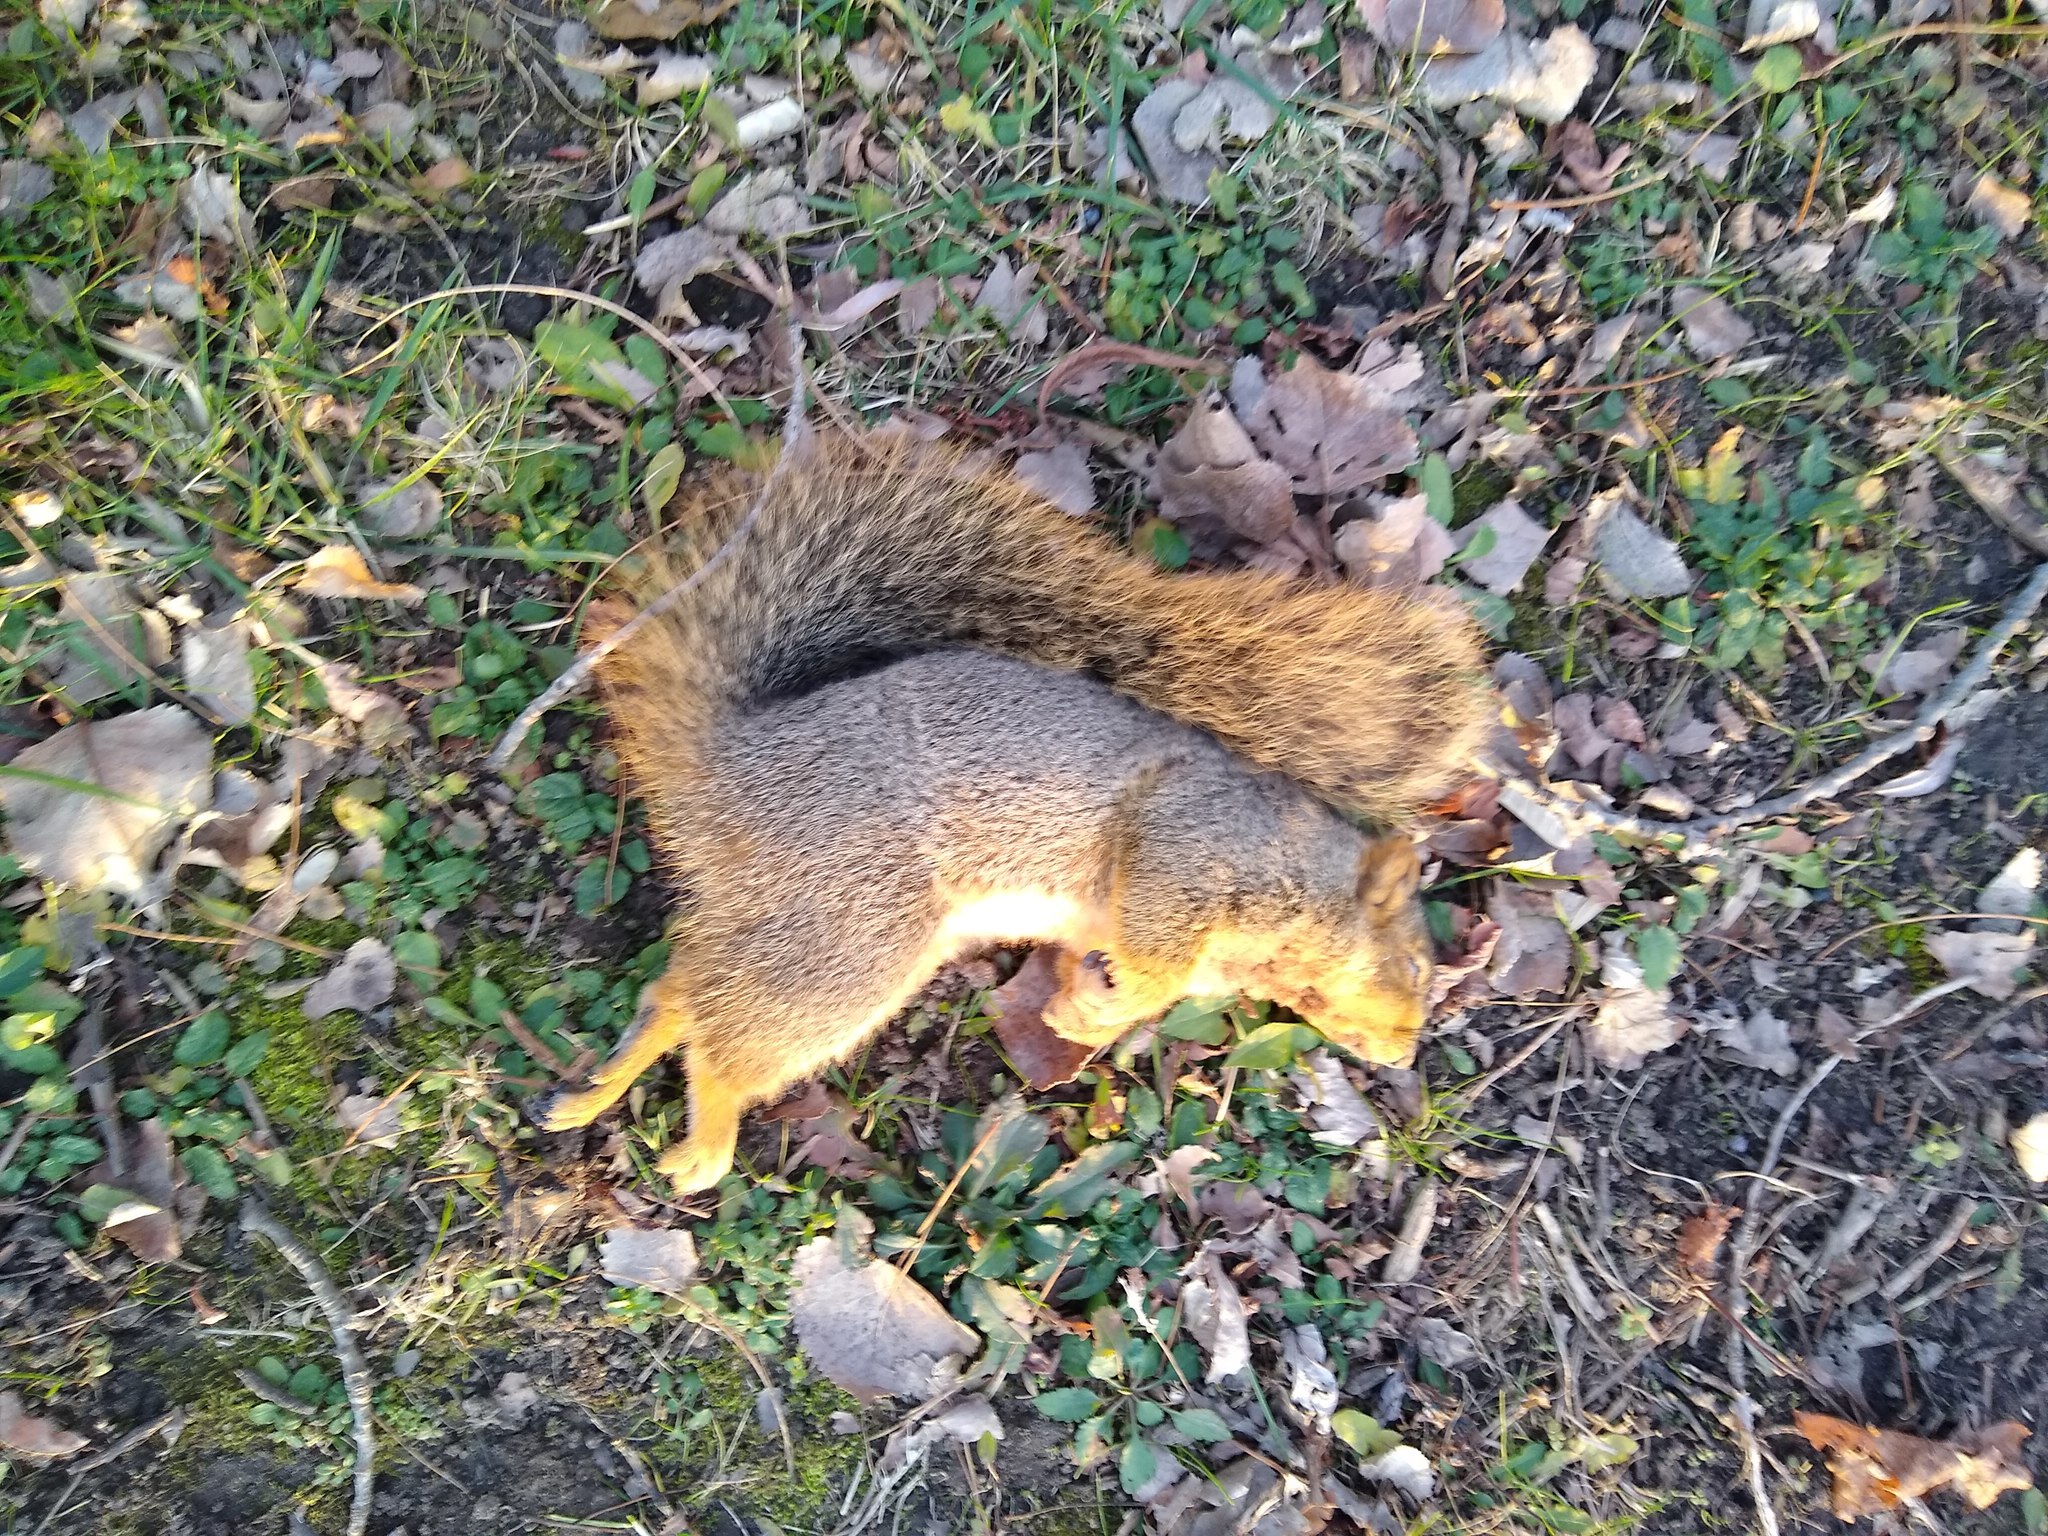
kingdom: Animalia
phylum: Chordata
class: Mammalia
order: Rodentia
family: Sciuridae
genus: Sciurus
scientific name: Sciurus niger
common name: Fox squirrel
